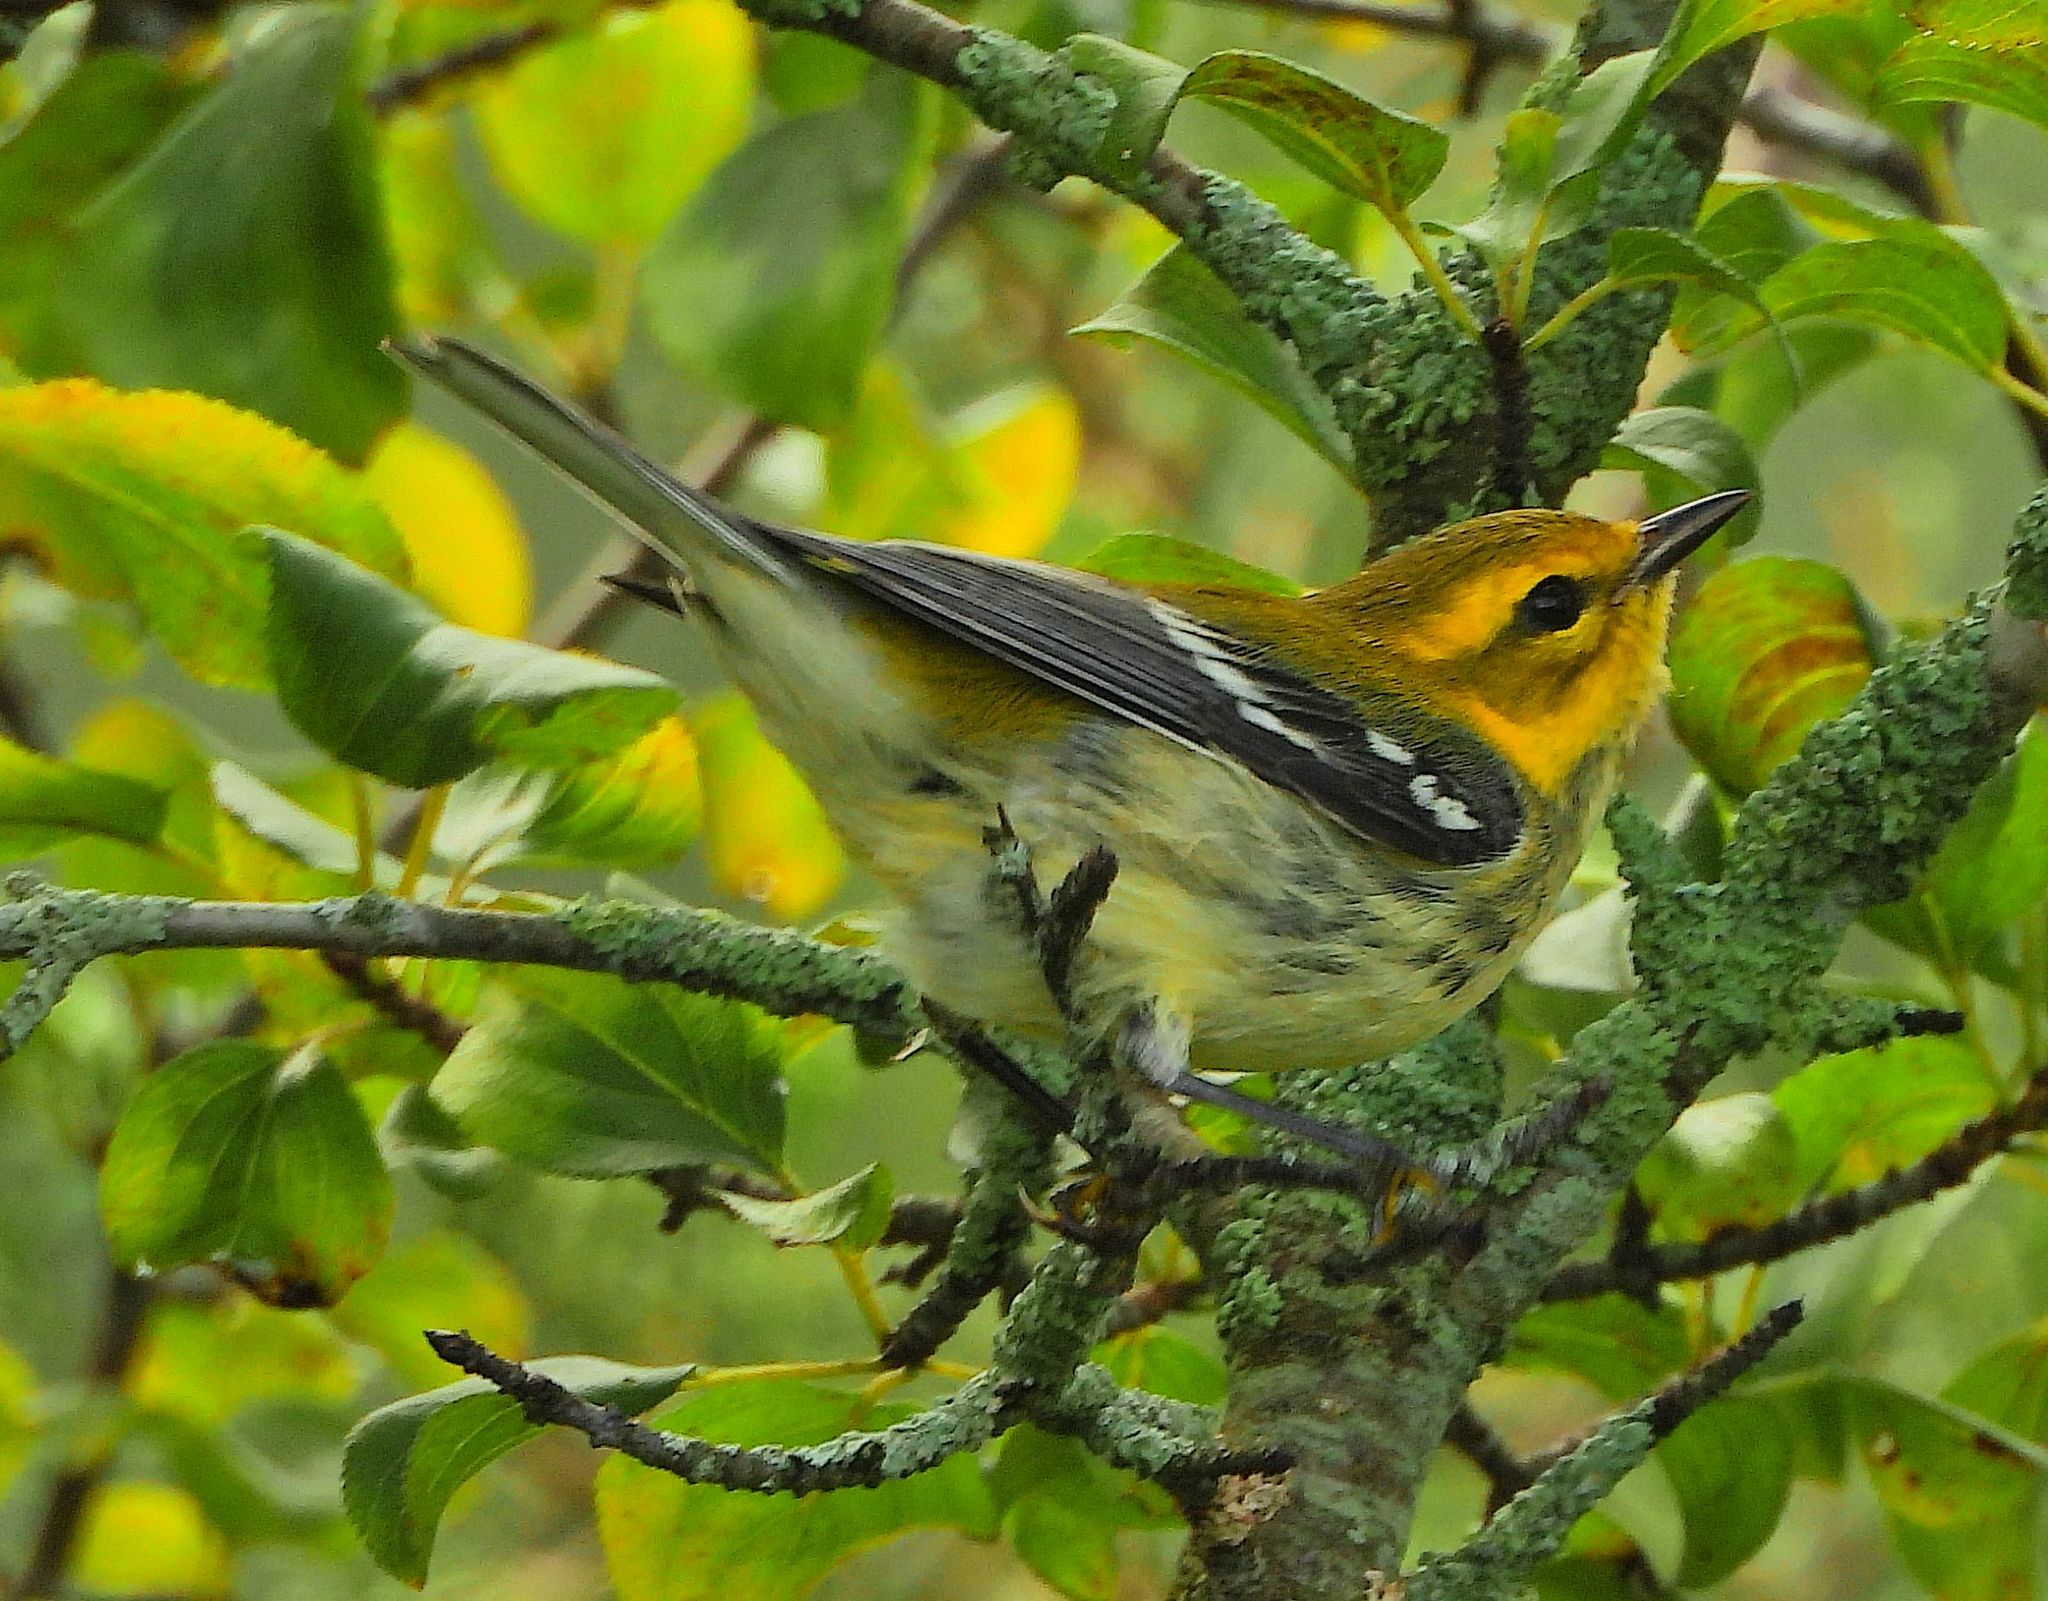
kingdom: Animalia
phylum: Chordata
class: Aves
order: Passeriformes
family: Parulidae
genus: Setophaga
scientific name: Setophaga virens
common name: Black-throated green warbler
